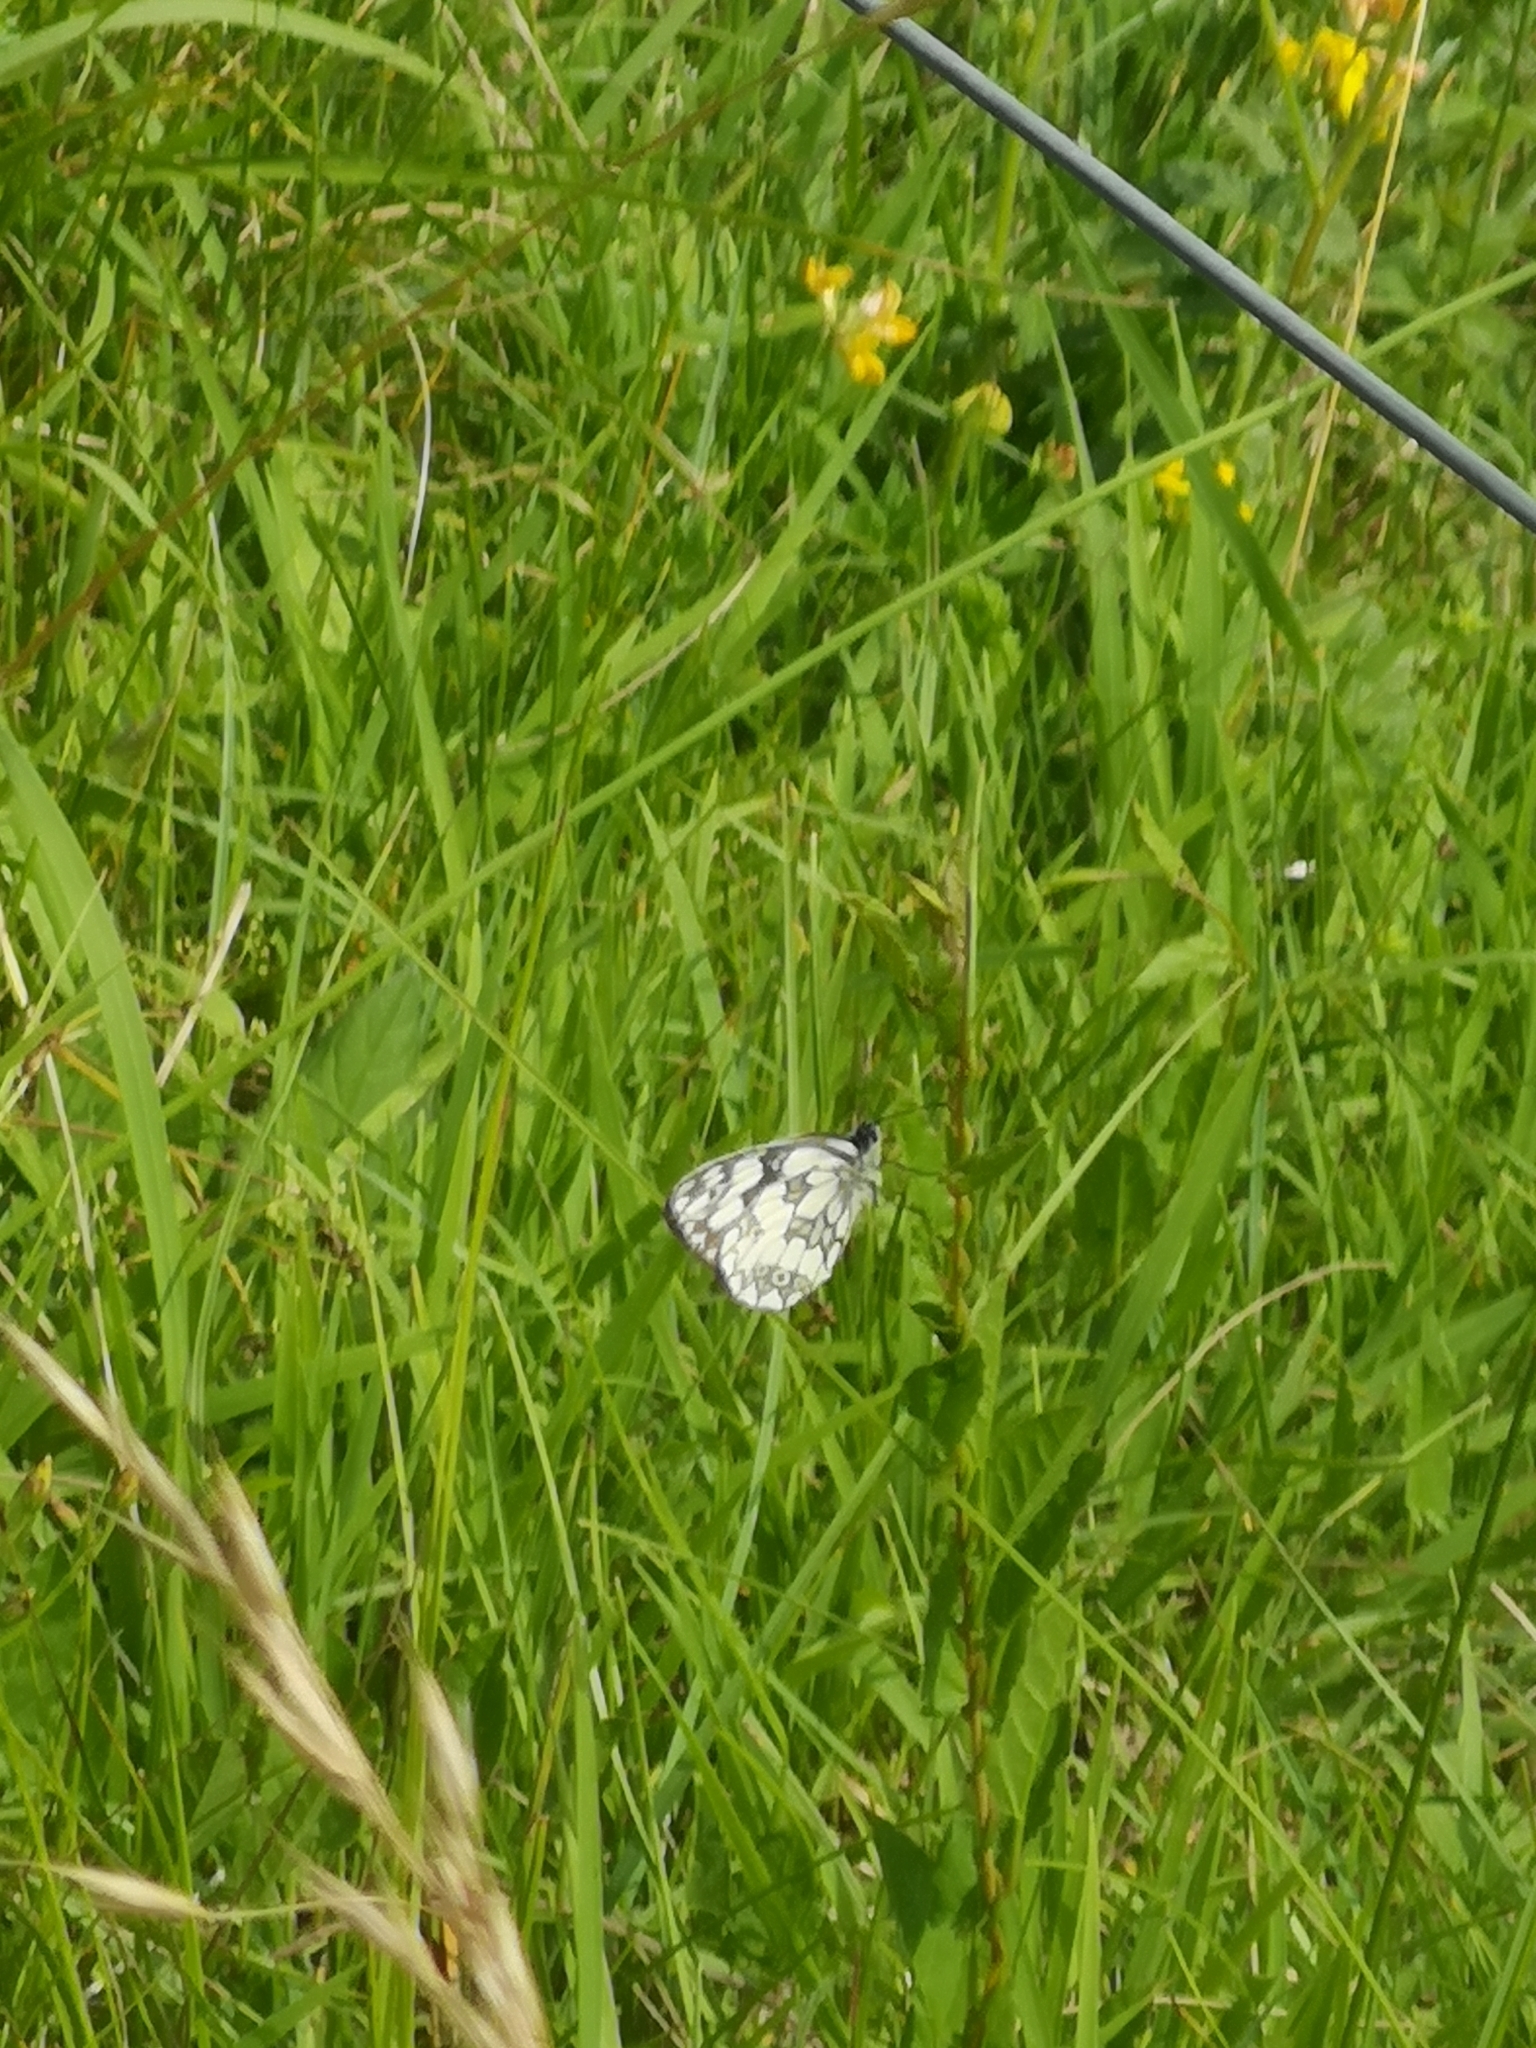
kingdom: Animalia
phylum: Arthropoda
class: Insecta
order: Lepidoptera
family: Nymphalidae
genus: Melanargia
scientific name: Melanargia galathea
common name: Marbled white
